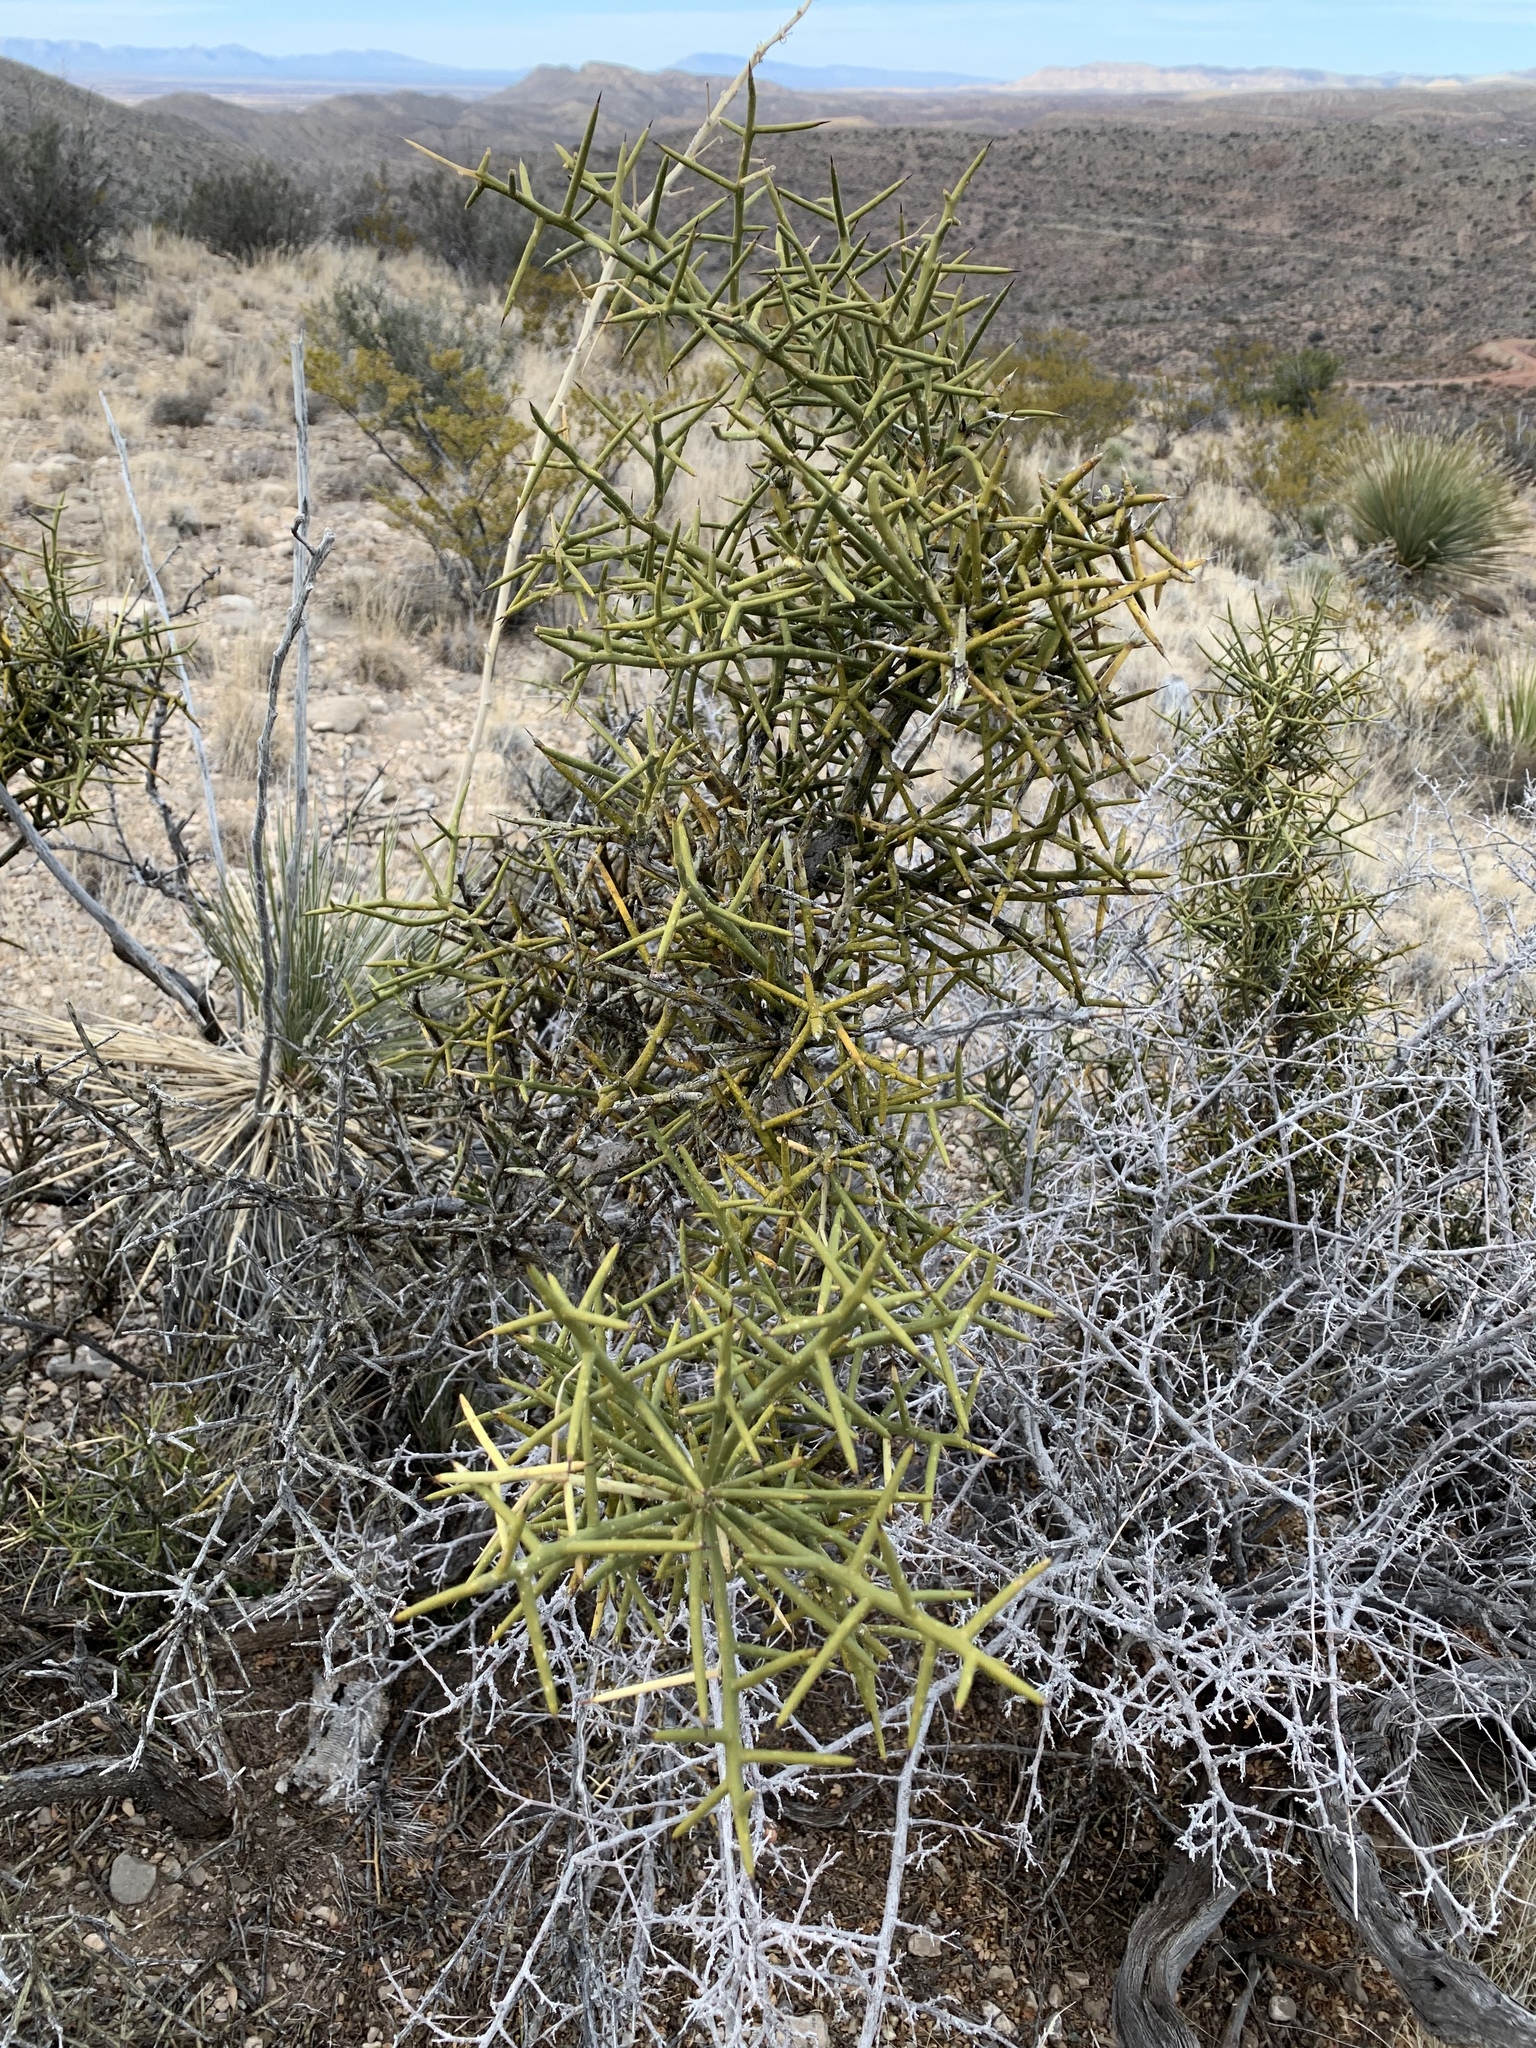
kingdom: Plantae
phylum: Tracheophyta
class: Magnoliopsida
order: Brassicales
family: Koeberliniaceae
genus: Koeberlinia
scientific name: Koeberlinia spinosa
